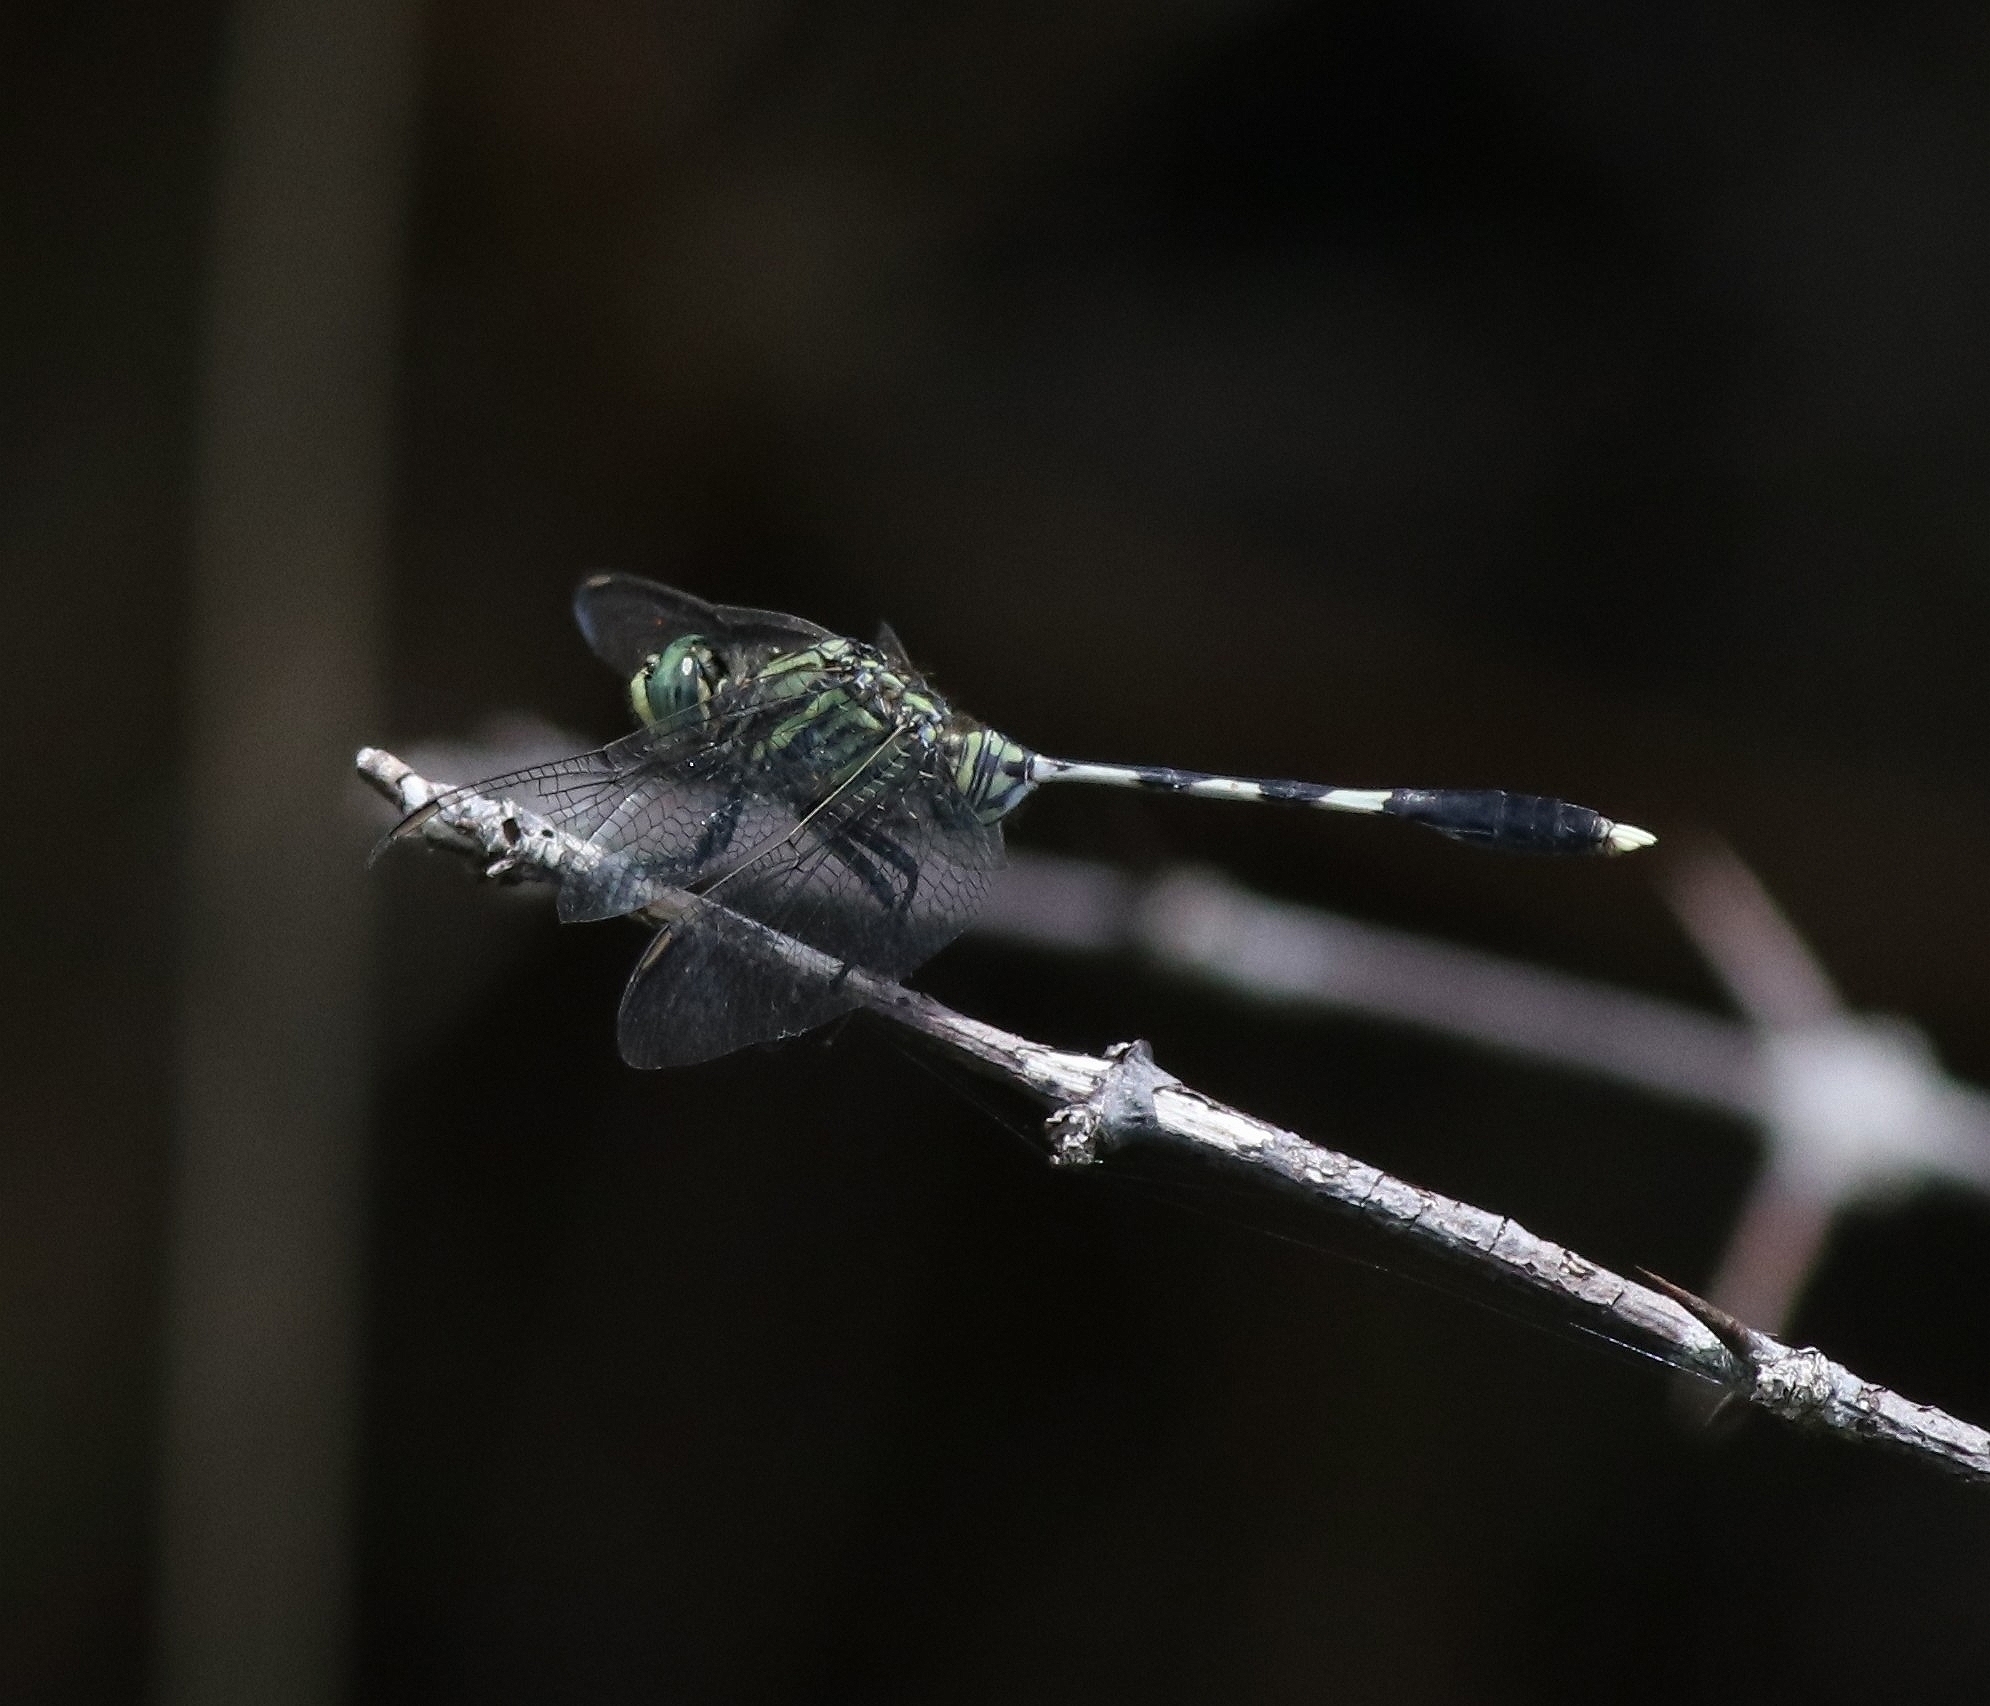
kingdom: Animalia
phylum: Arthropoda
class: Insecta
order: Odonata
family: Libellulidae
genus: Orthetrum
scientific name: Orthetrum sabina
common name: Slender skimmer
